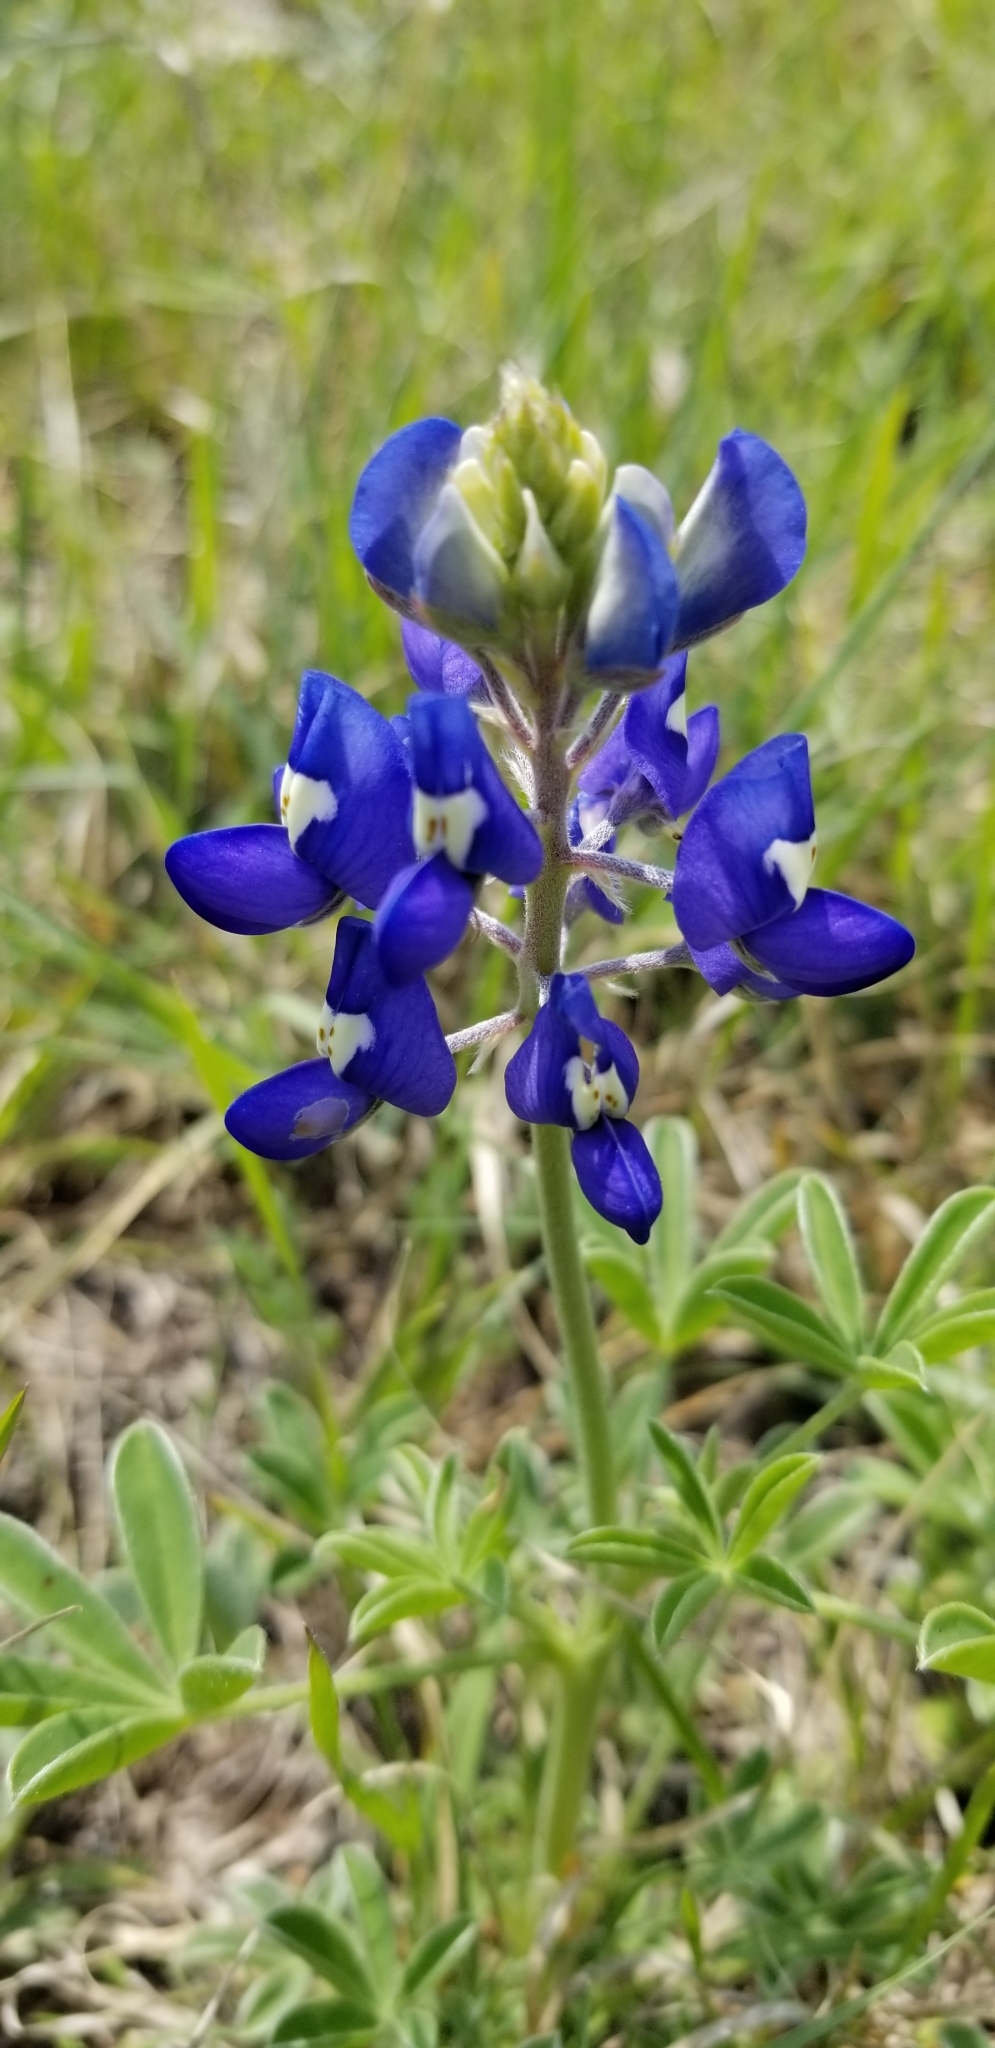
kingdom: Plantae
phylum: Tracheophyta
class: Magnoliopsida
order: Fabales
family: Fabaceae
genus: Lupinus
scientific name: Lupinus texensis
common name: Texas bluebonnet
